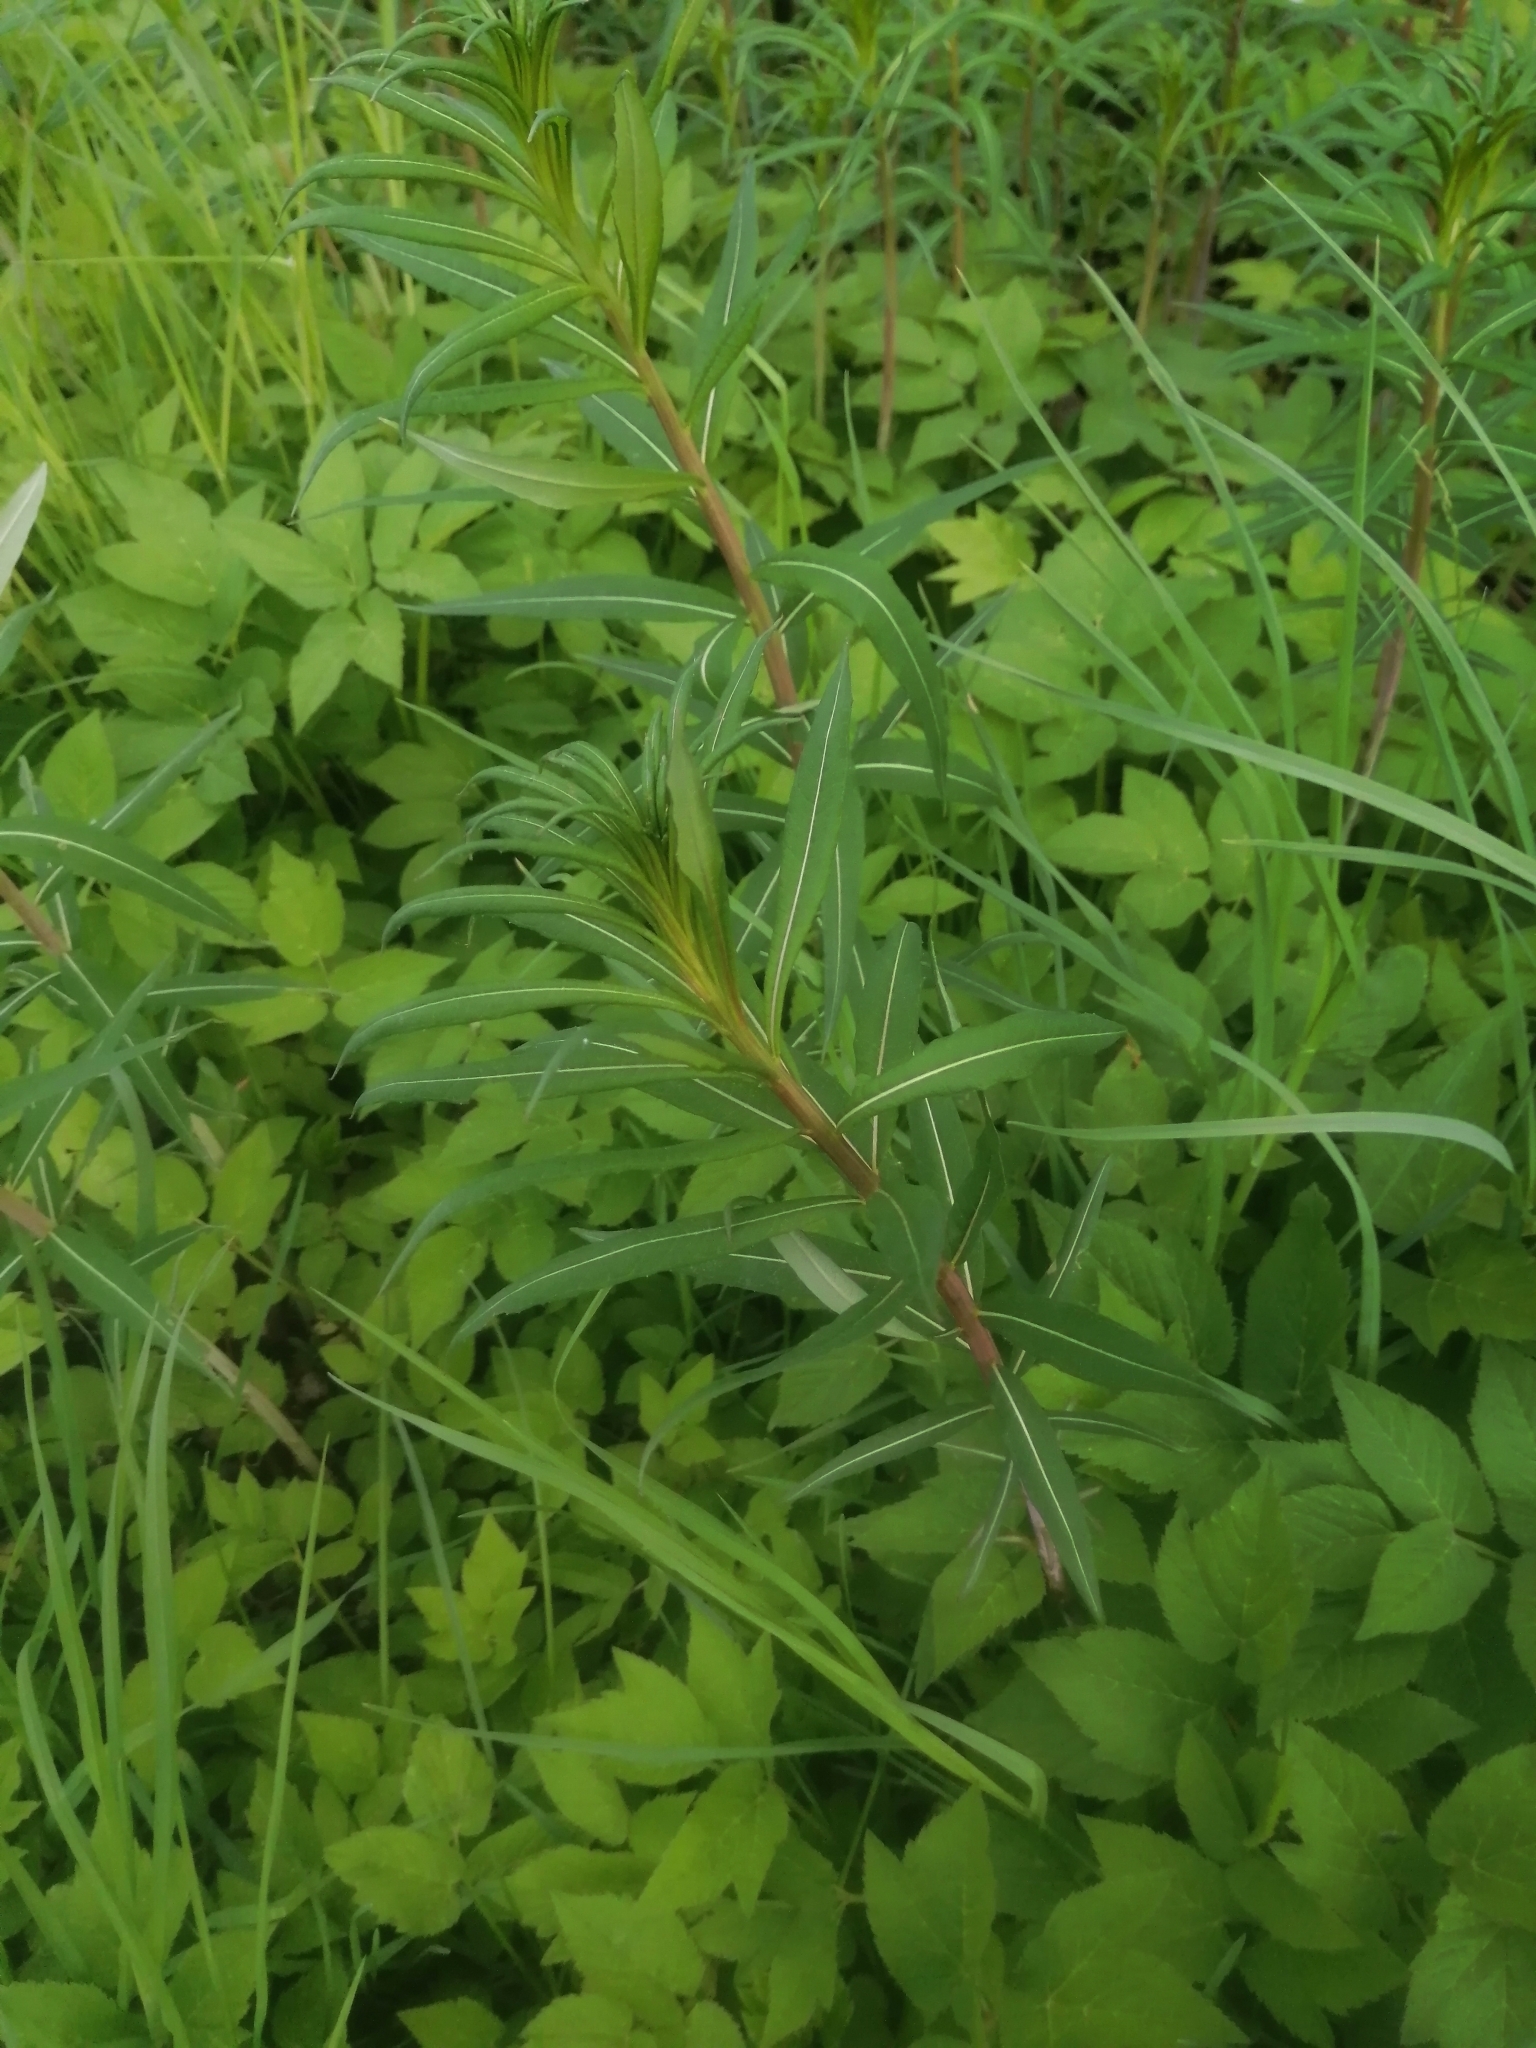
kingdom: Plantae
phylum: Tracheophyta
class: Magnoliopsida
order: Myrtales
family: Onagraceae
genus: Chamaenerion
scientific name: Chamaenerion angustifolium
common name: Fireweed
